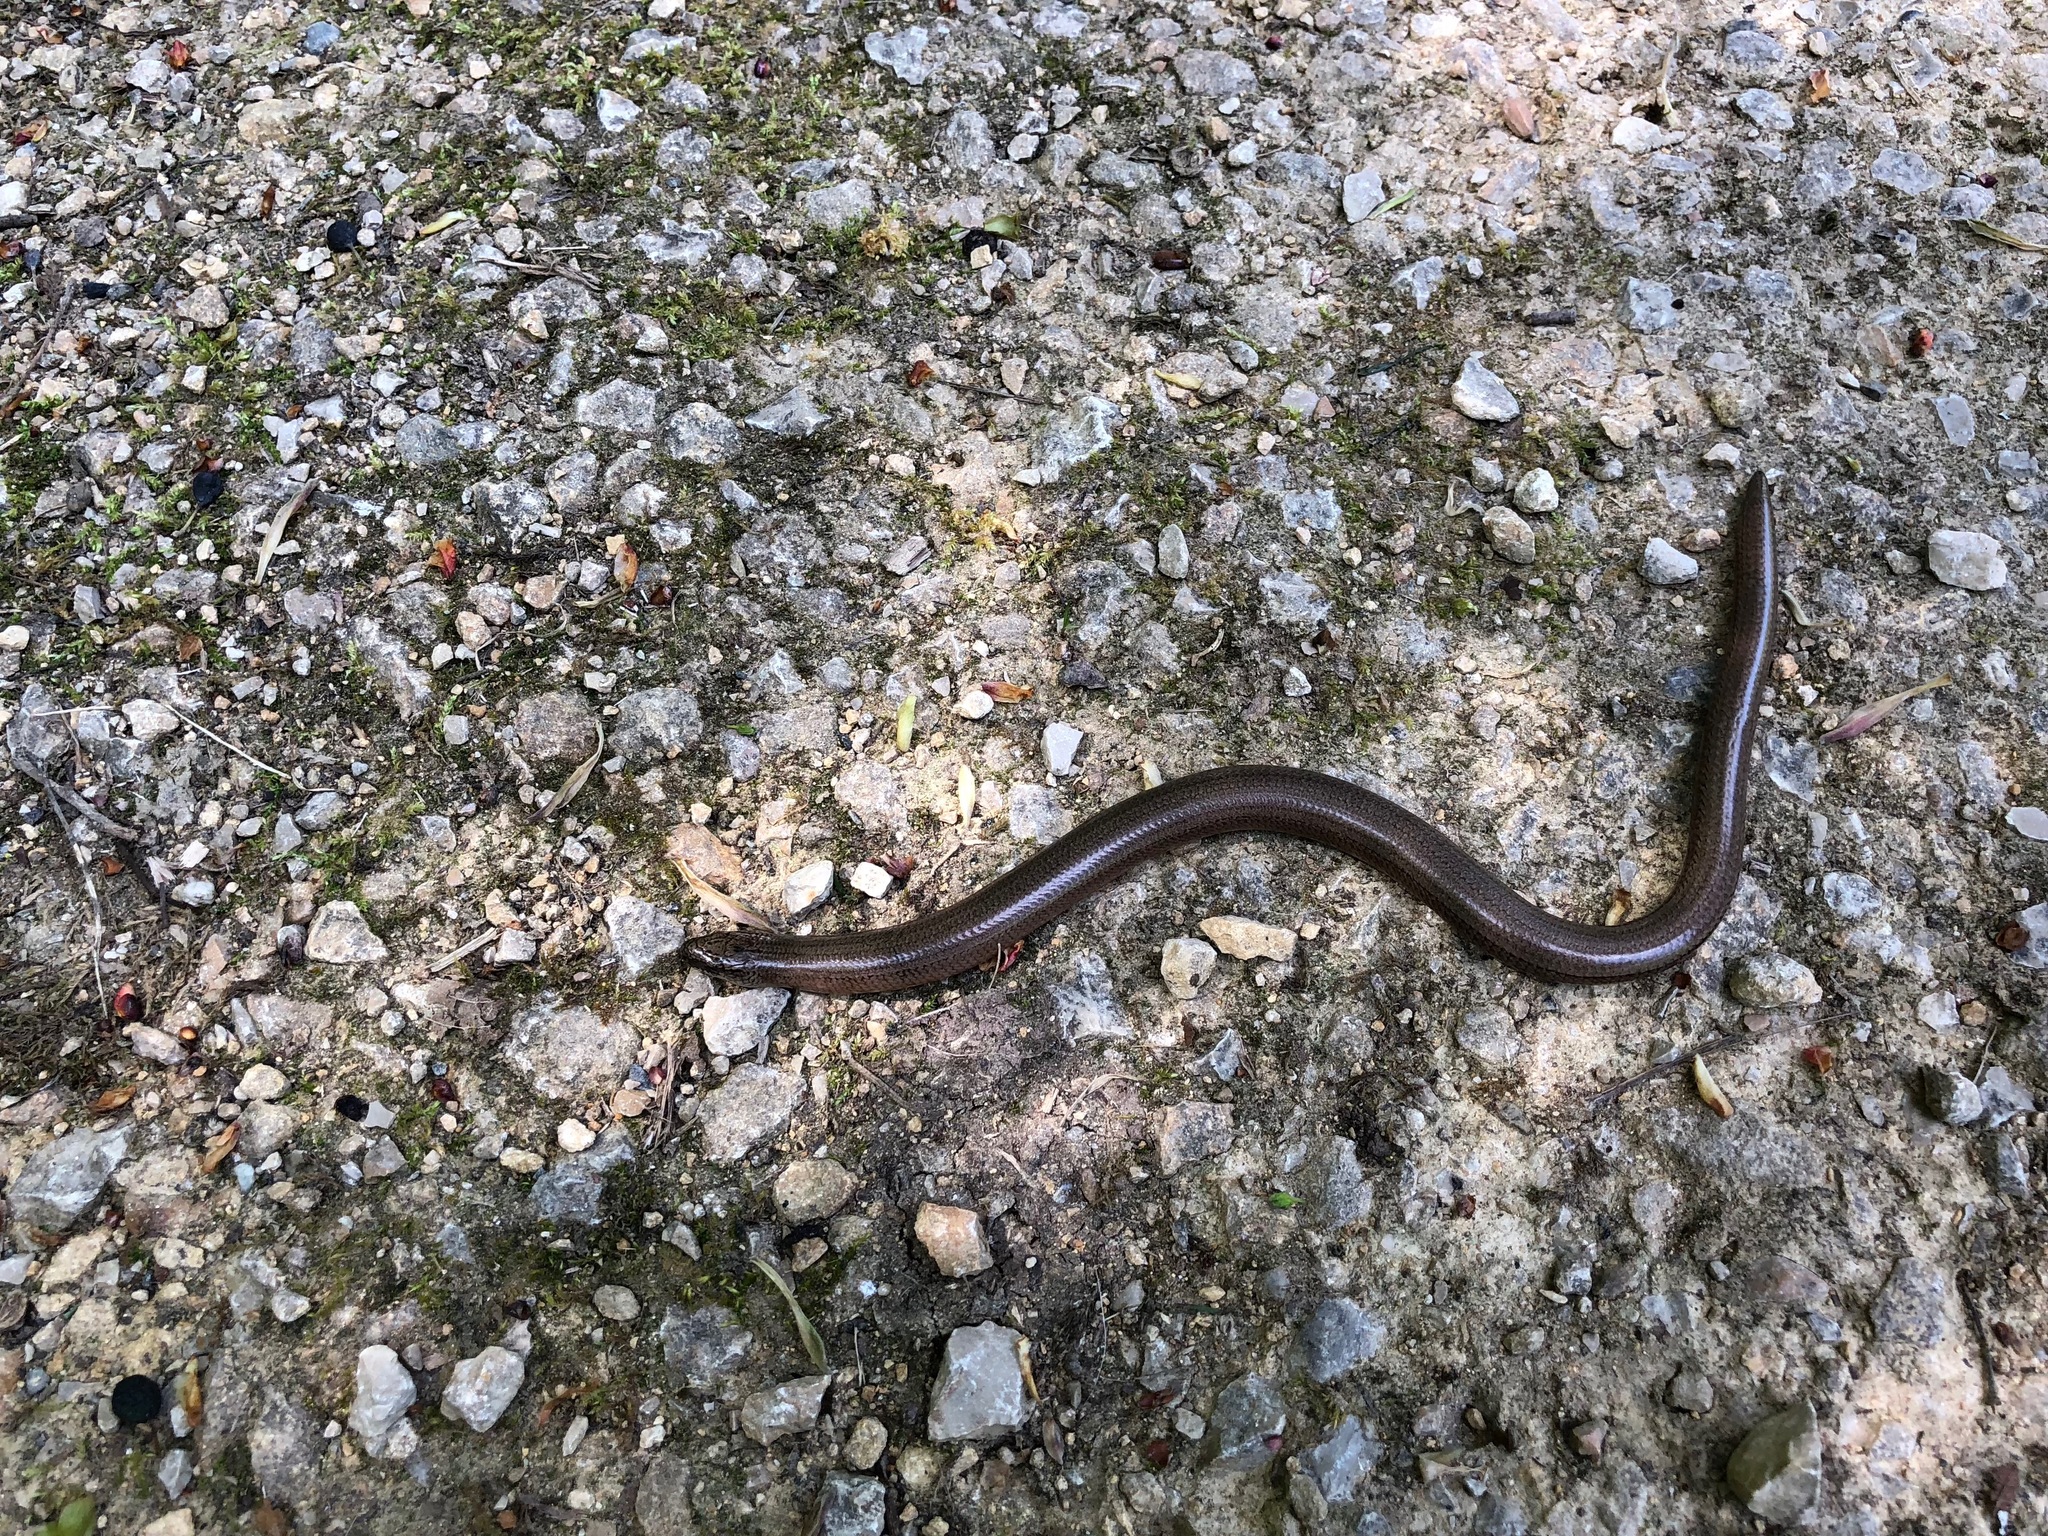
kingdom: Animalia
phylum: Chordata
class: Squamata
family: Anguidae
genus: Anguis
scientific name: Anguis fragilis
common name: Slow worm
